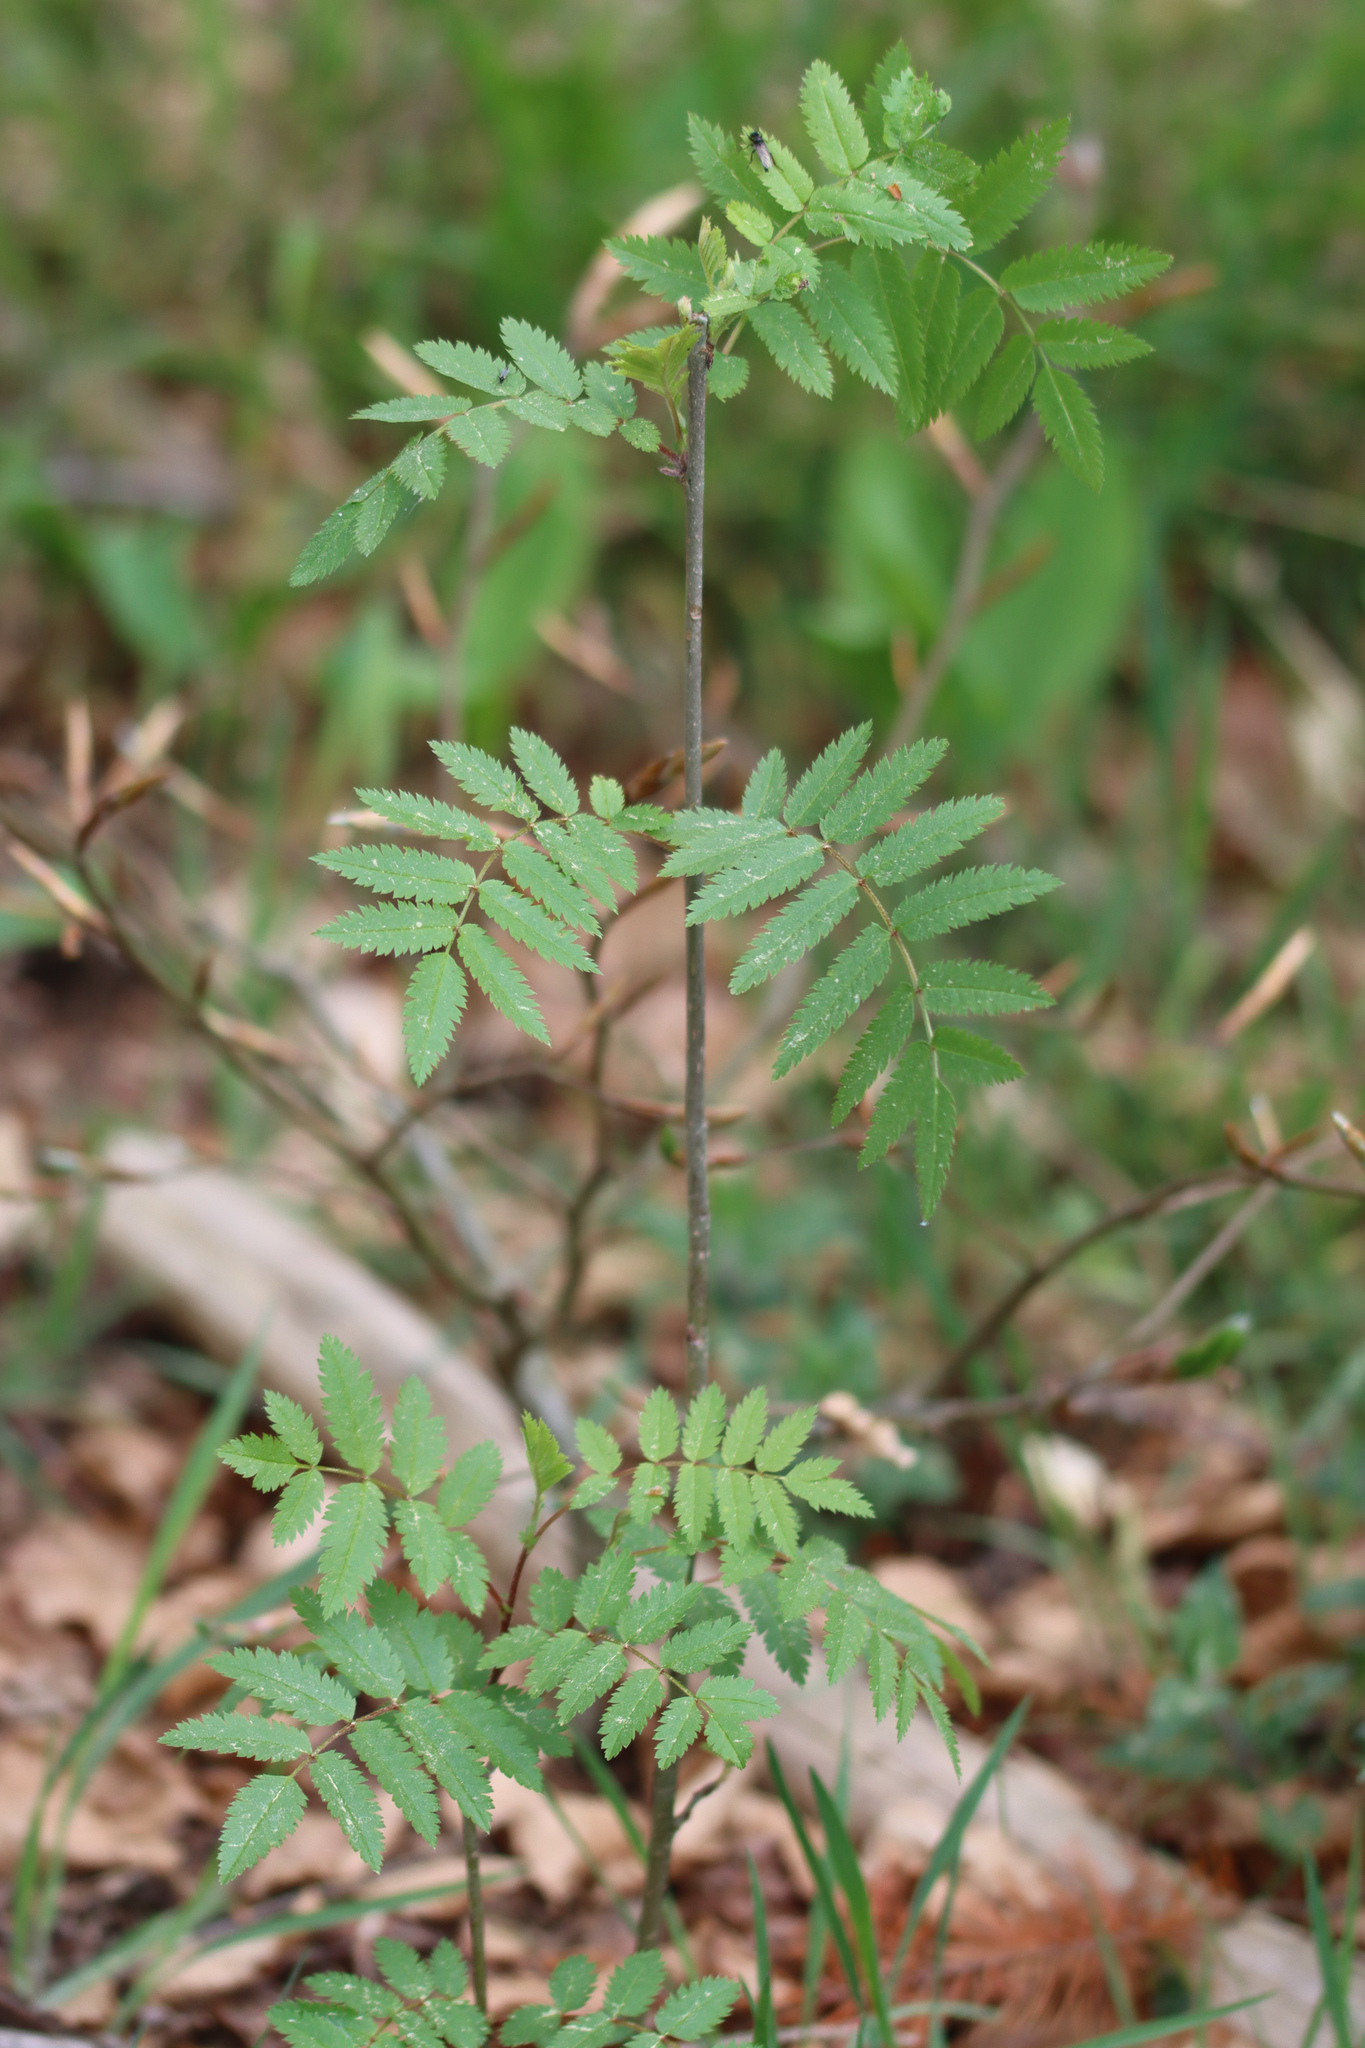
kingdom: Plantae
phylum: Tracheophyta
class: Magnoliopsida
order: Rosales
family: Rosaceae
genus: Sorbus
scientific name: Sorbus aucuparia
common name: Rowan
